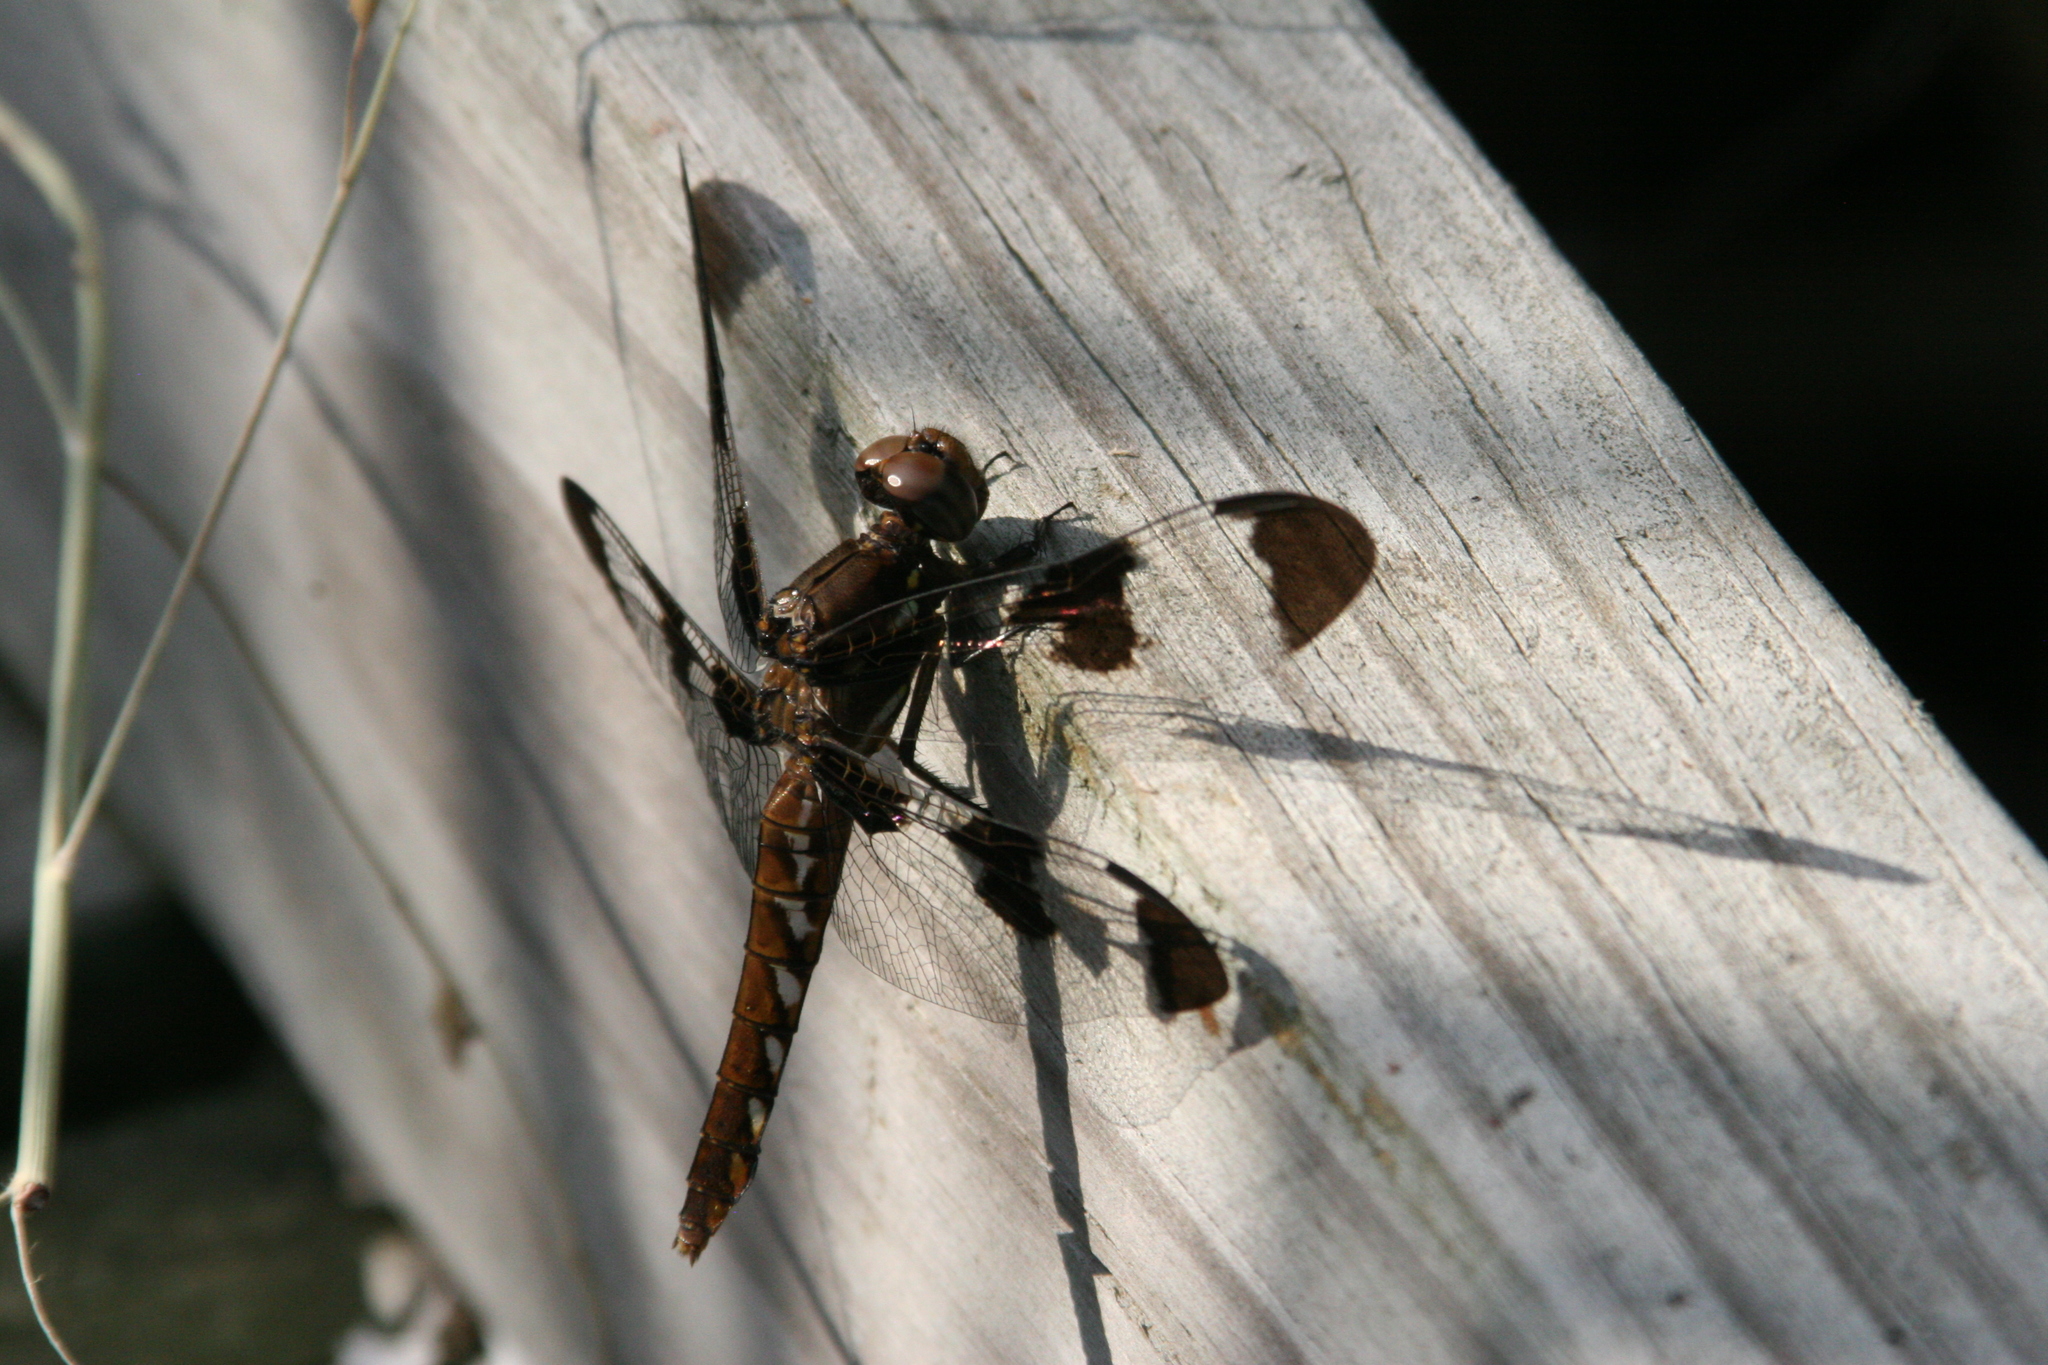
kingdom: Animalia
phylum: Arthropoda
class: Insecta
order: Odonata
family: Libellulidae
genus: Plathemis
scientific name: Plathemis lydia
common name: Common whitetail
